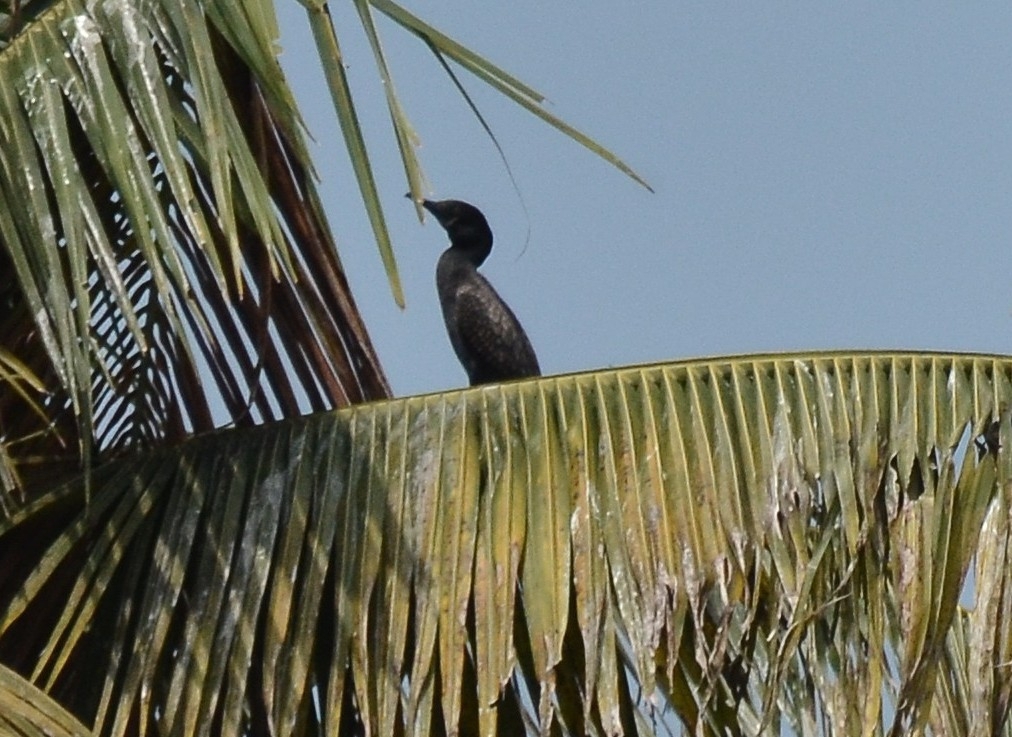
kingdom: Animalia
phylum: Chordata
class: Aves
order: Suliformes
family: Phalacrocoracidae
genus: Microcarbo
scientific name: Microcarbo niger
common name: Little cormorant
